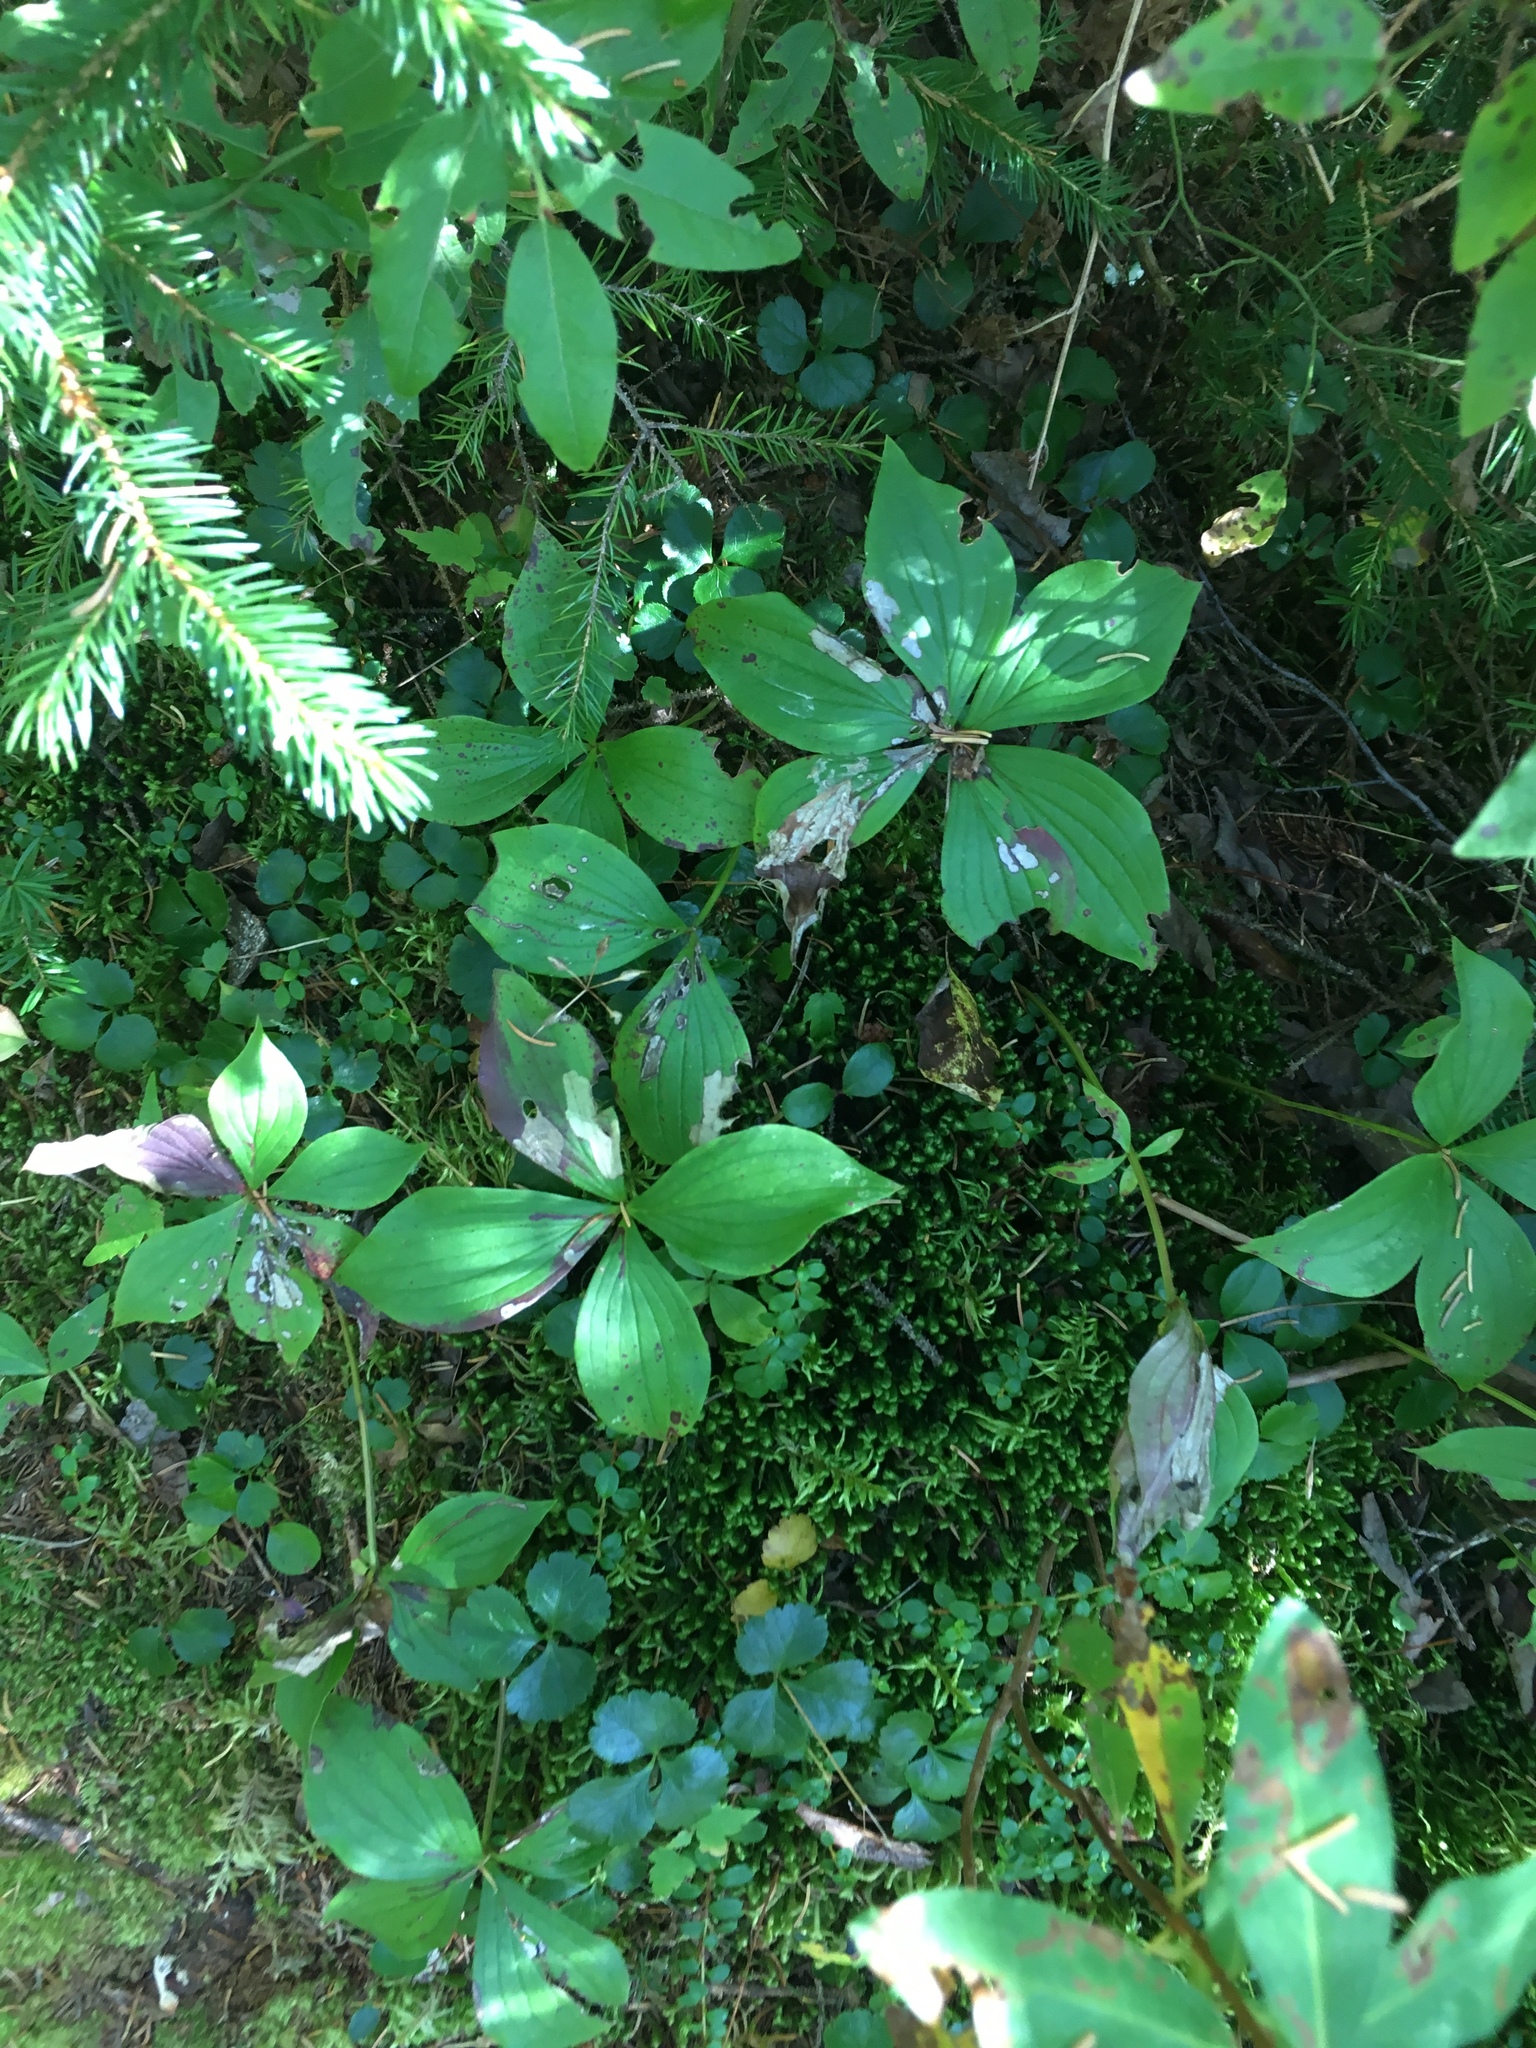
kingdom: Plantae
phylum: Tracheophyta
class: Magnoliopsida
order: Cornales
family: Cornaceae
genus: Cornus
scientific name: Cornus canadensis
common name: Creeping dogwood
